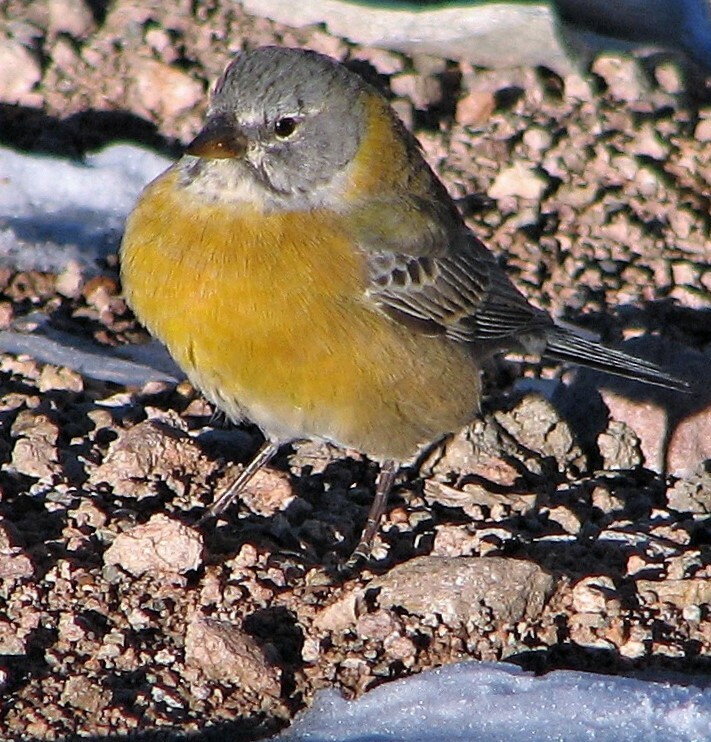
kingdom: Animalia
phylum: Chordata
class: Aves
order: Passeriformes
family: Thraupidae
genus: Phrygilus
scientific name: Phrygilus gayi
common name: Grey-hooded sierra finch
